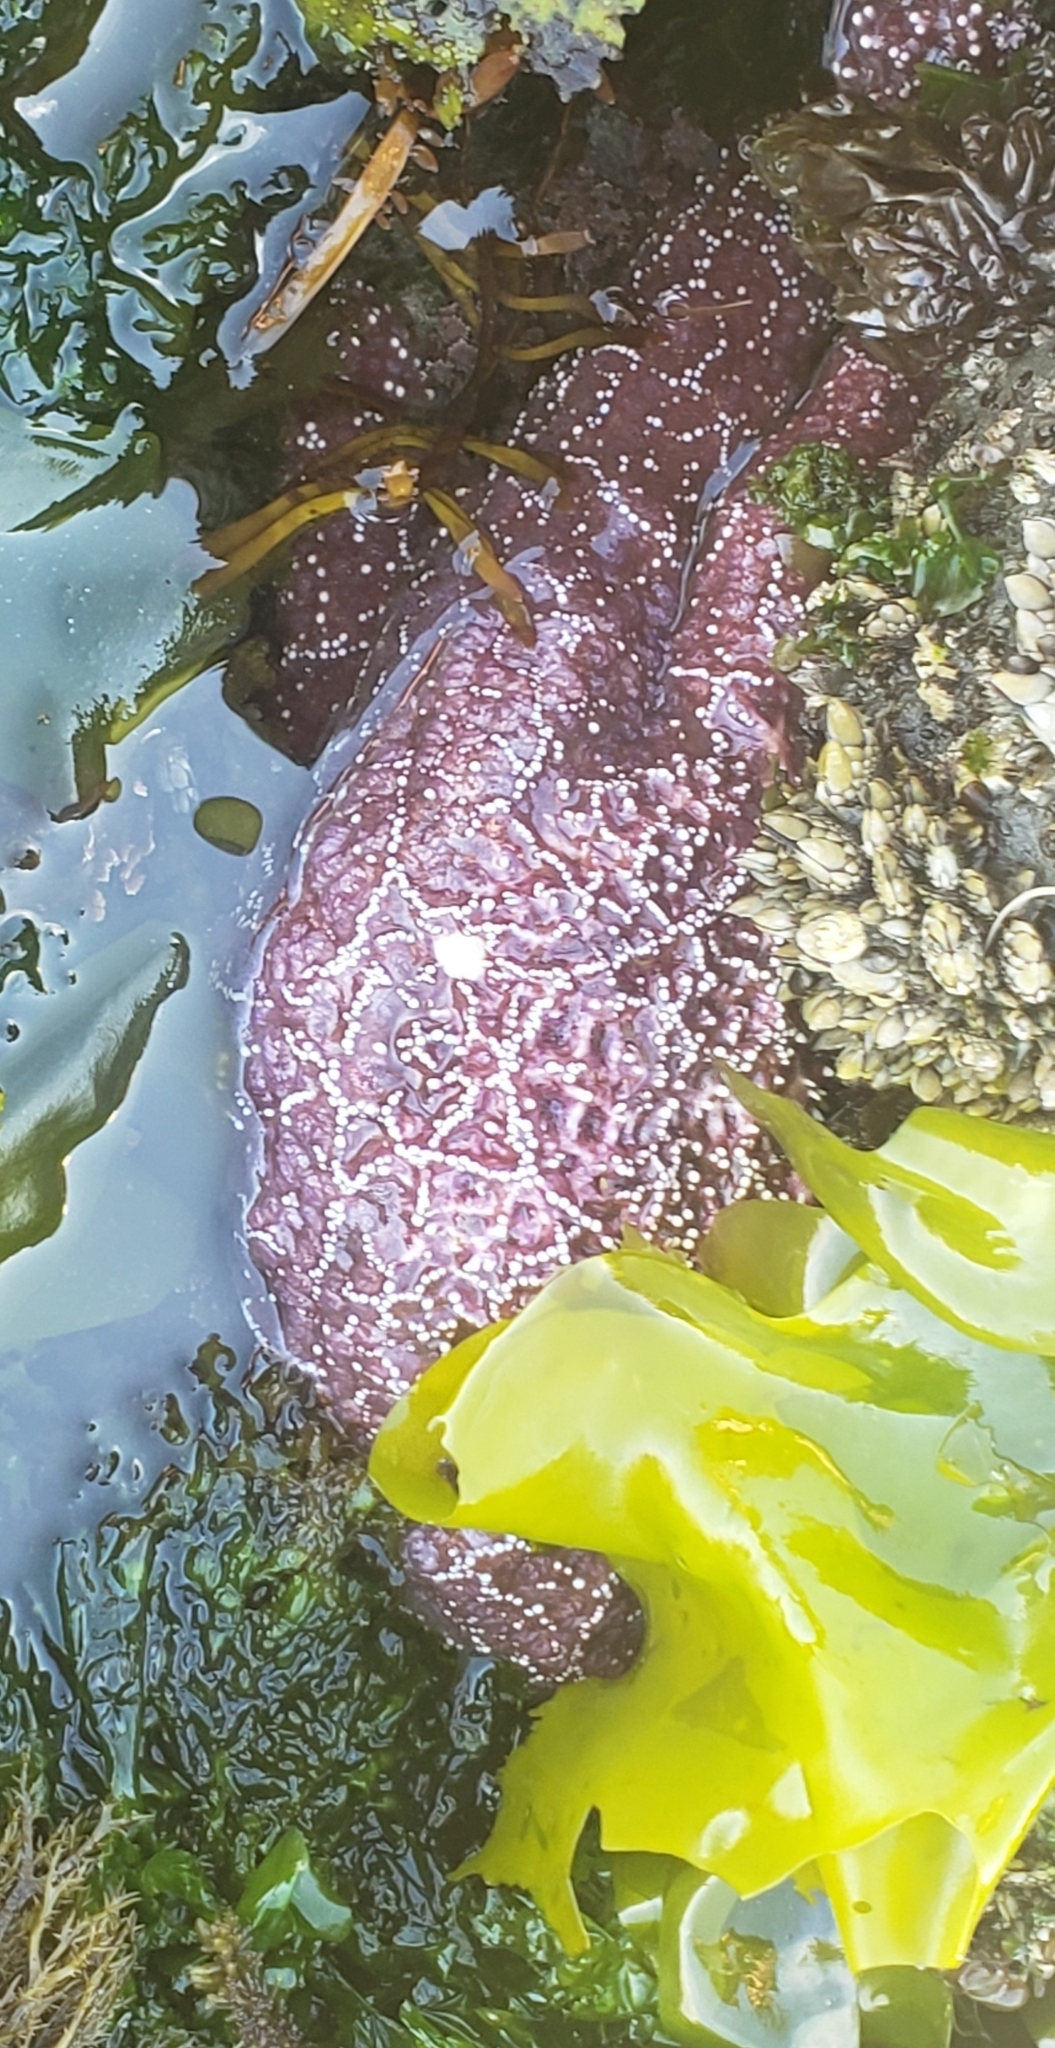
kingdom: Animalia
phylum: Echinodermata
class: Asteroidea
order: Forcipulatida
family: Asteriidae
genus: Pisaster
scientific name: Pisaster ochraceus
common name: Ochre stars
